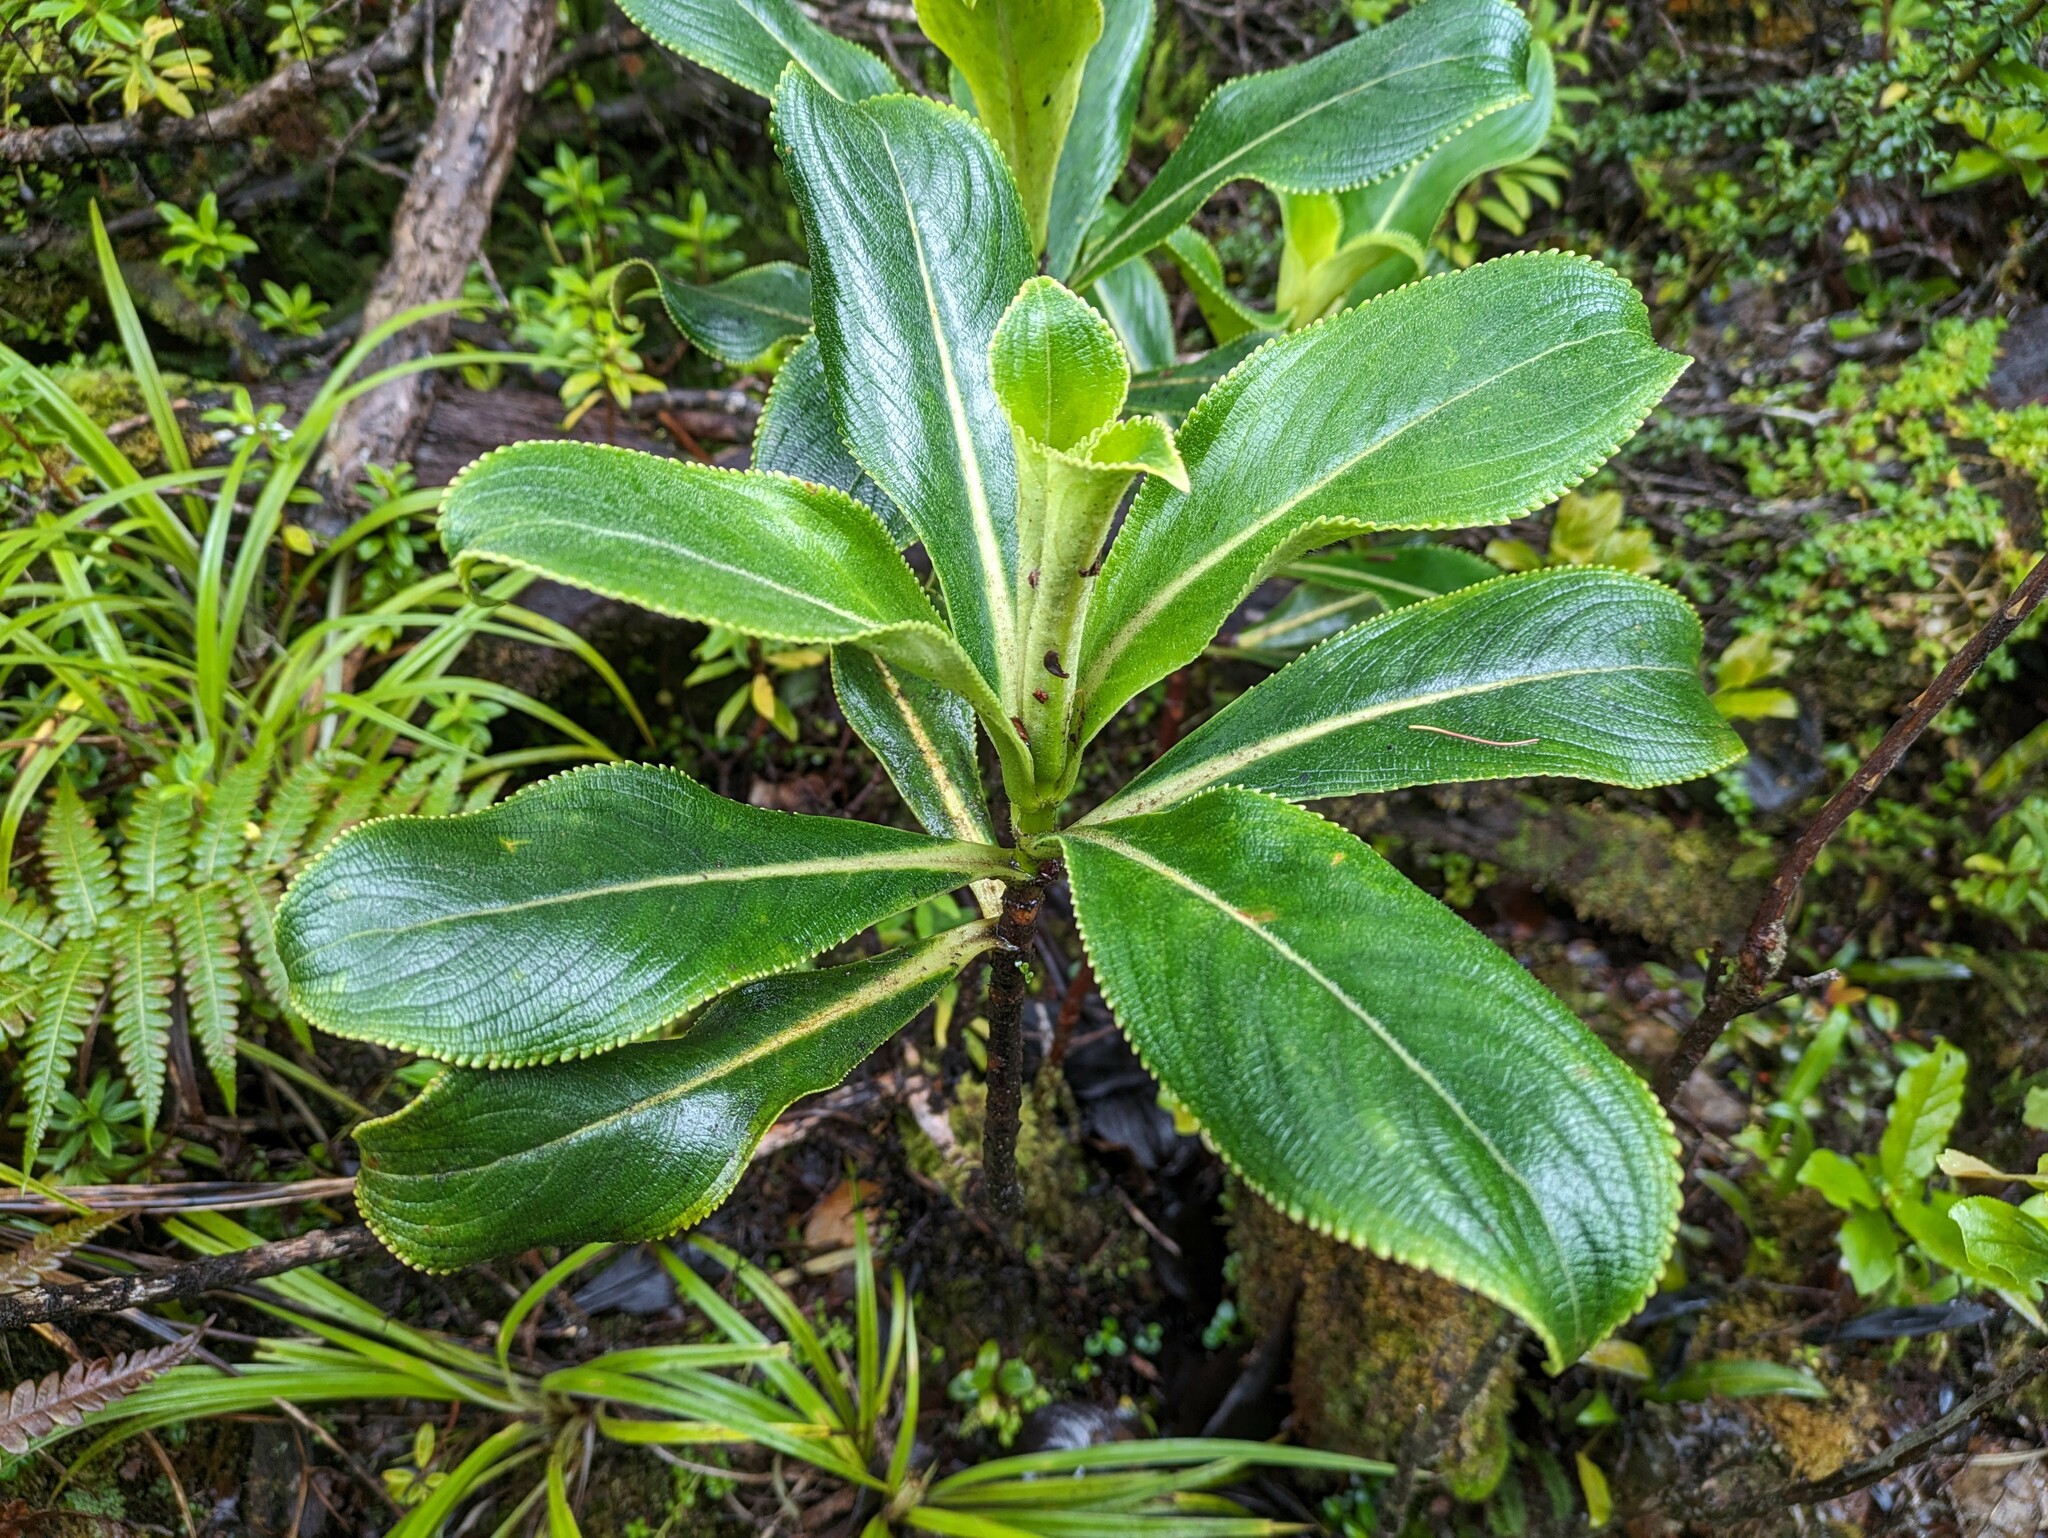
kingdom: Plantae
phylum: Tracheophyta
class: Magnoliopsida
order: Cornales
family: Hydrangeaceae
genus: Hydrangea
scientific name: Hydrangea arguta
